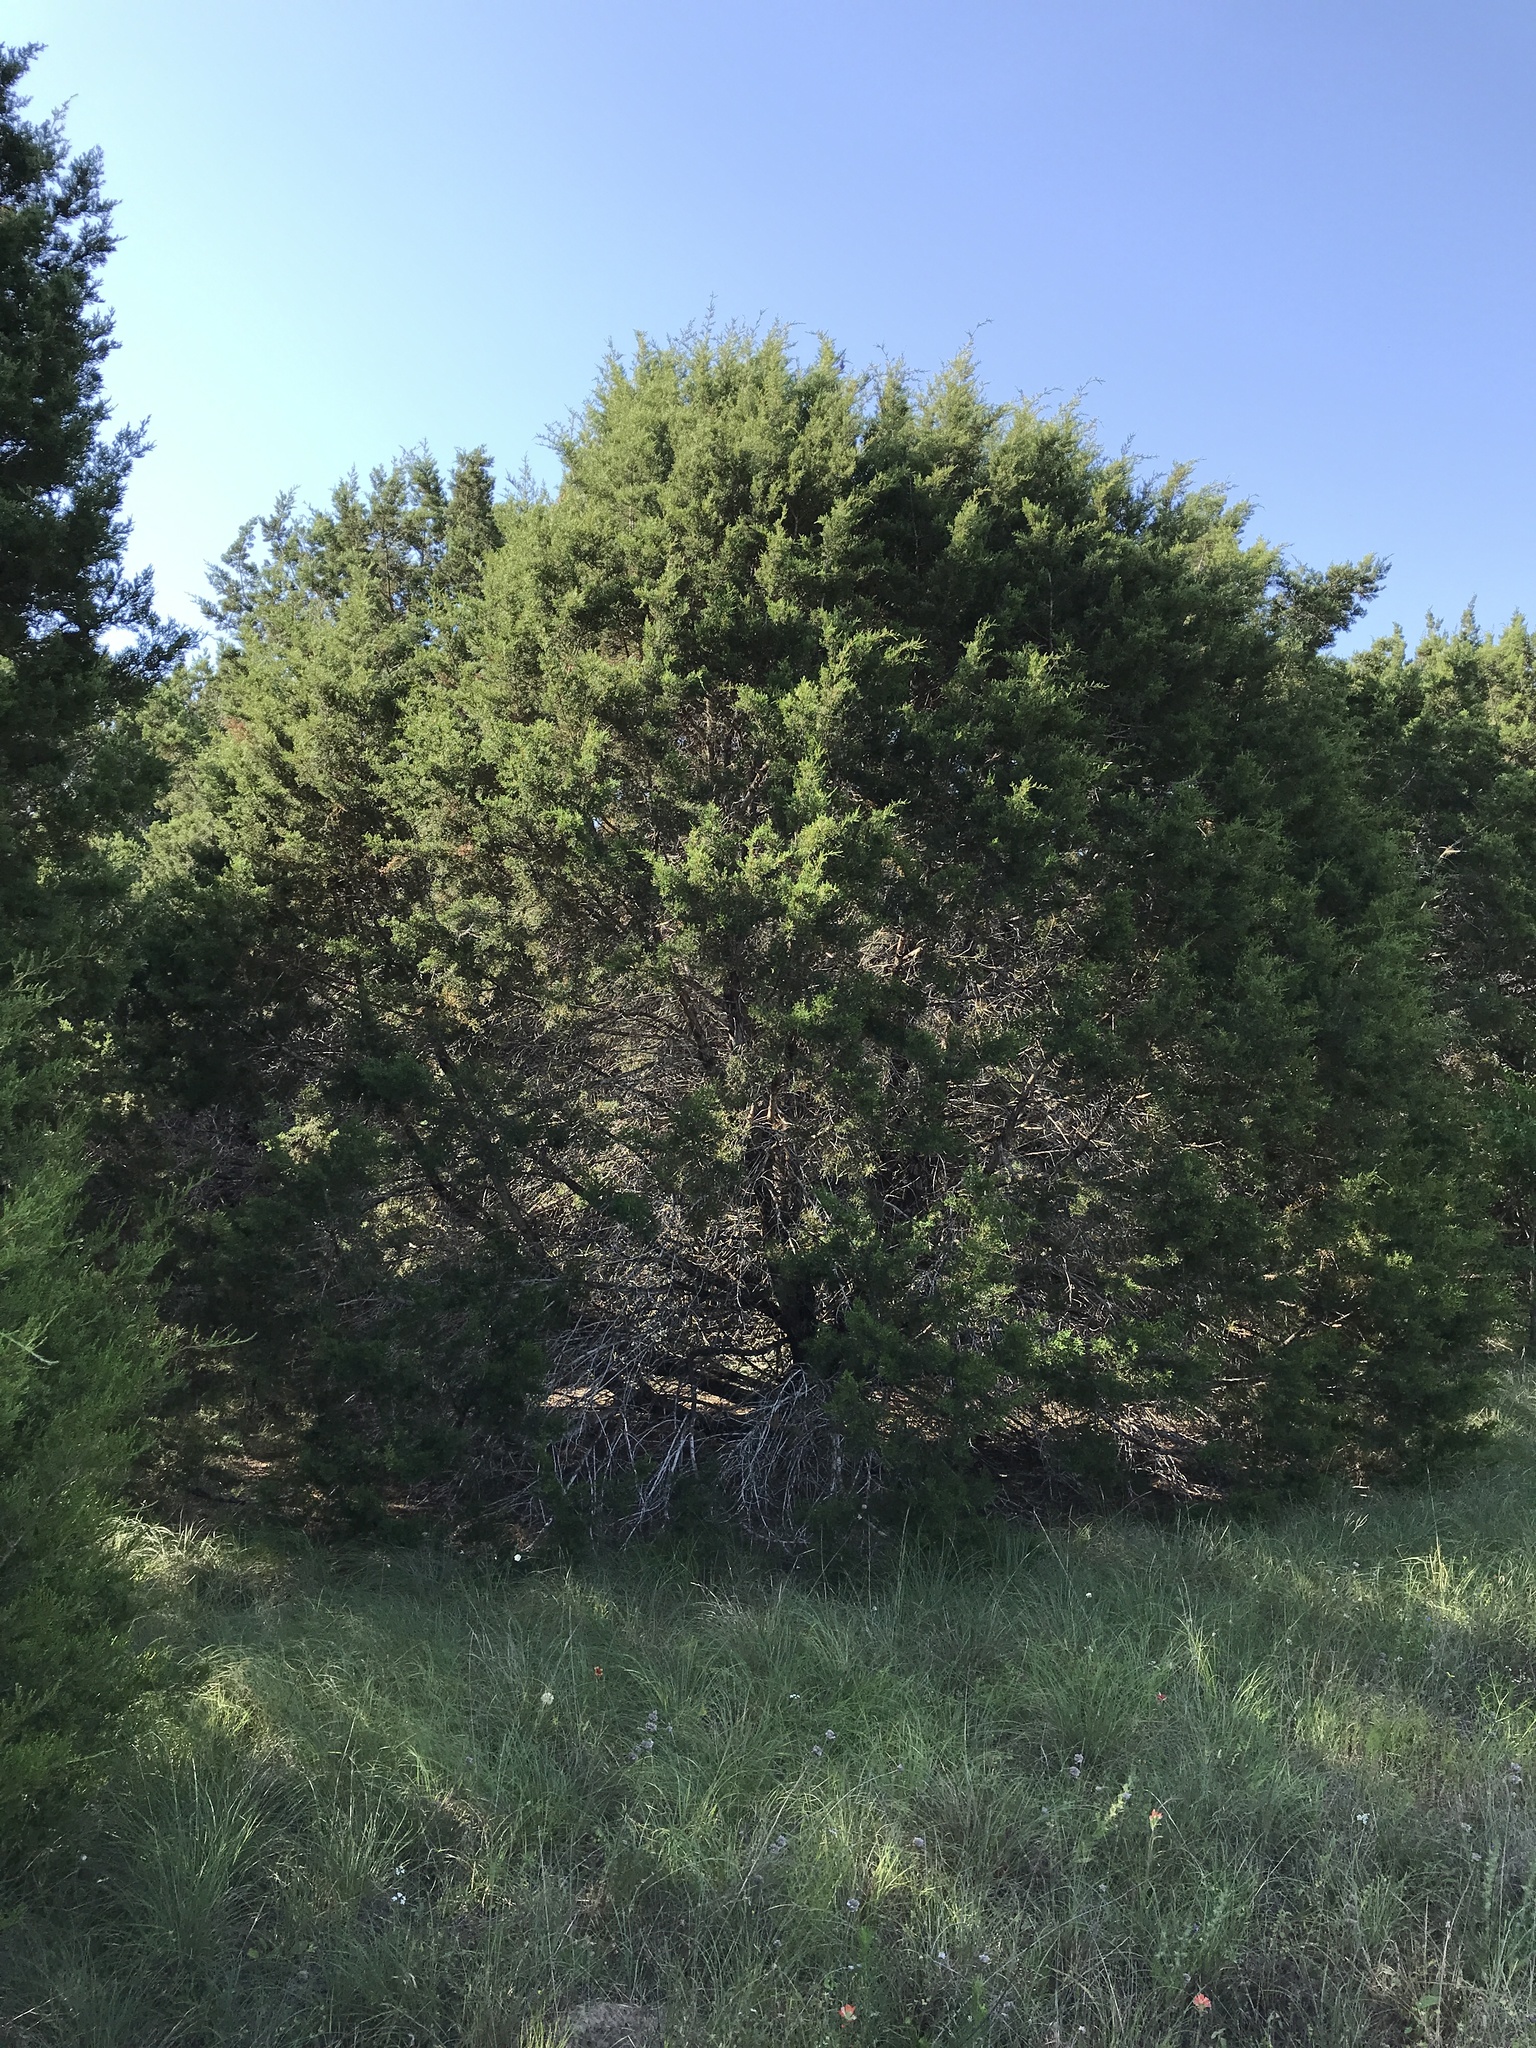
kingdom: Plantae
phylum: Tracheophyta
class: Pinopsida
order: Pinales
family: Cupressaceae
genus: Juniperus
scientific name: Juniperus ashei
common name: Mexican juniper
